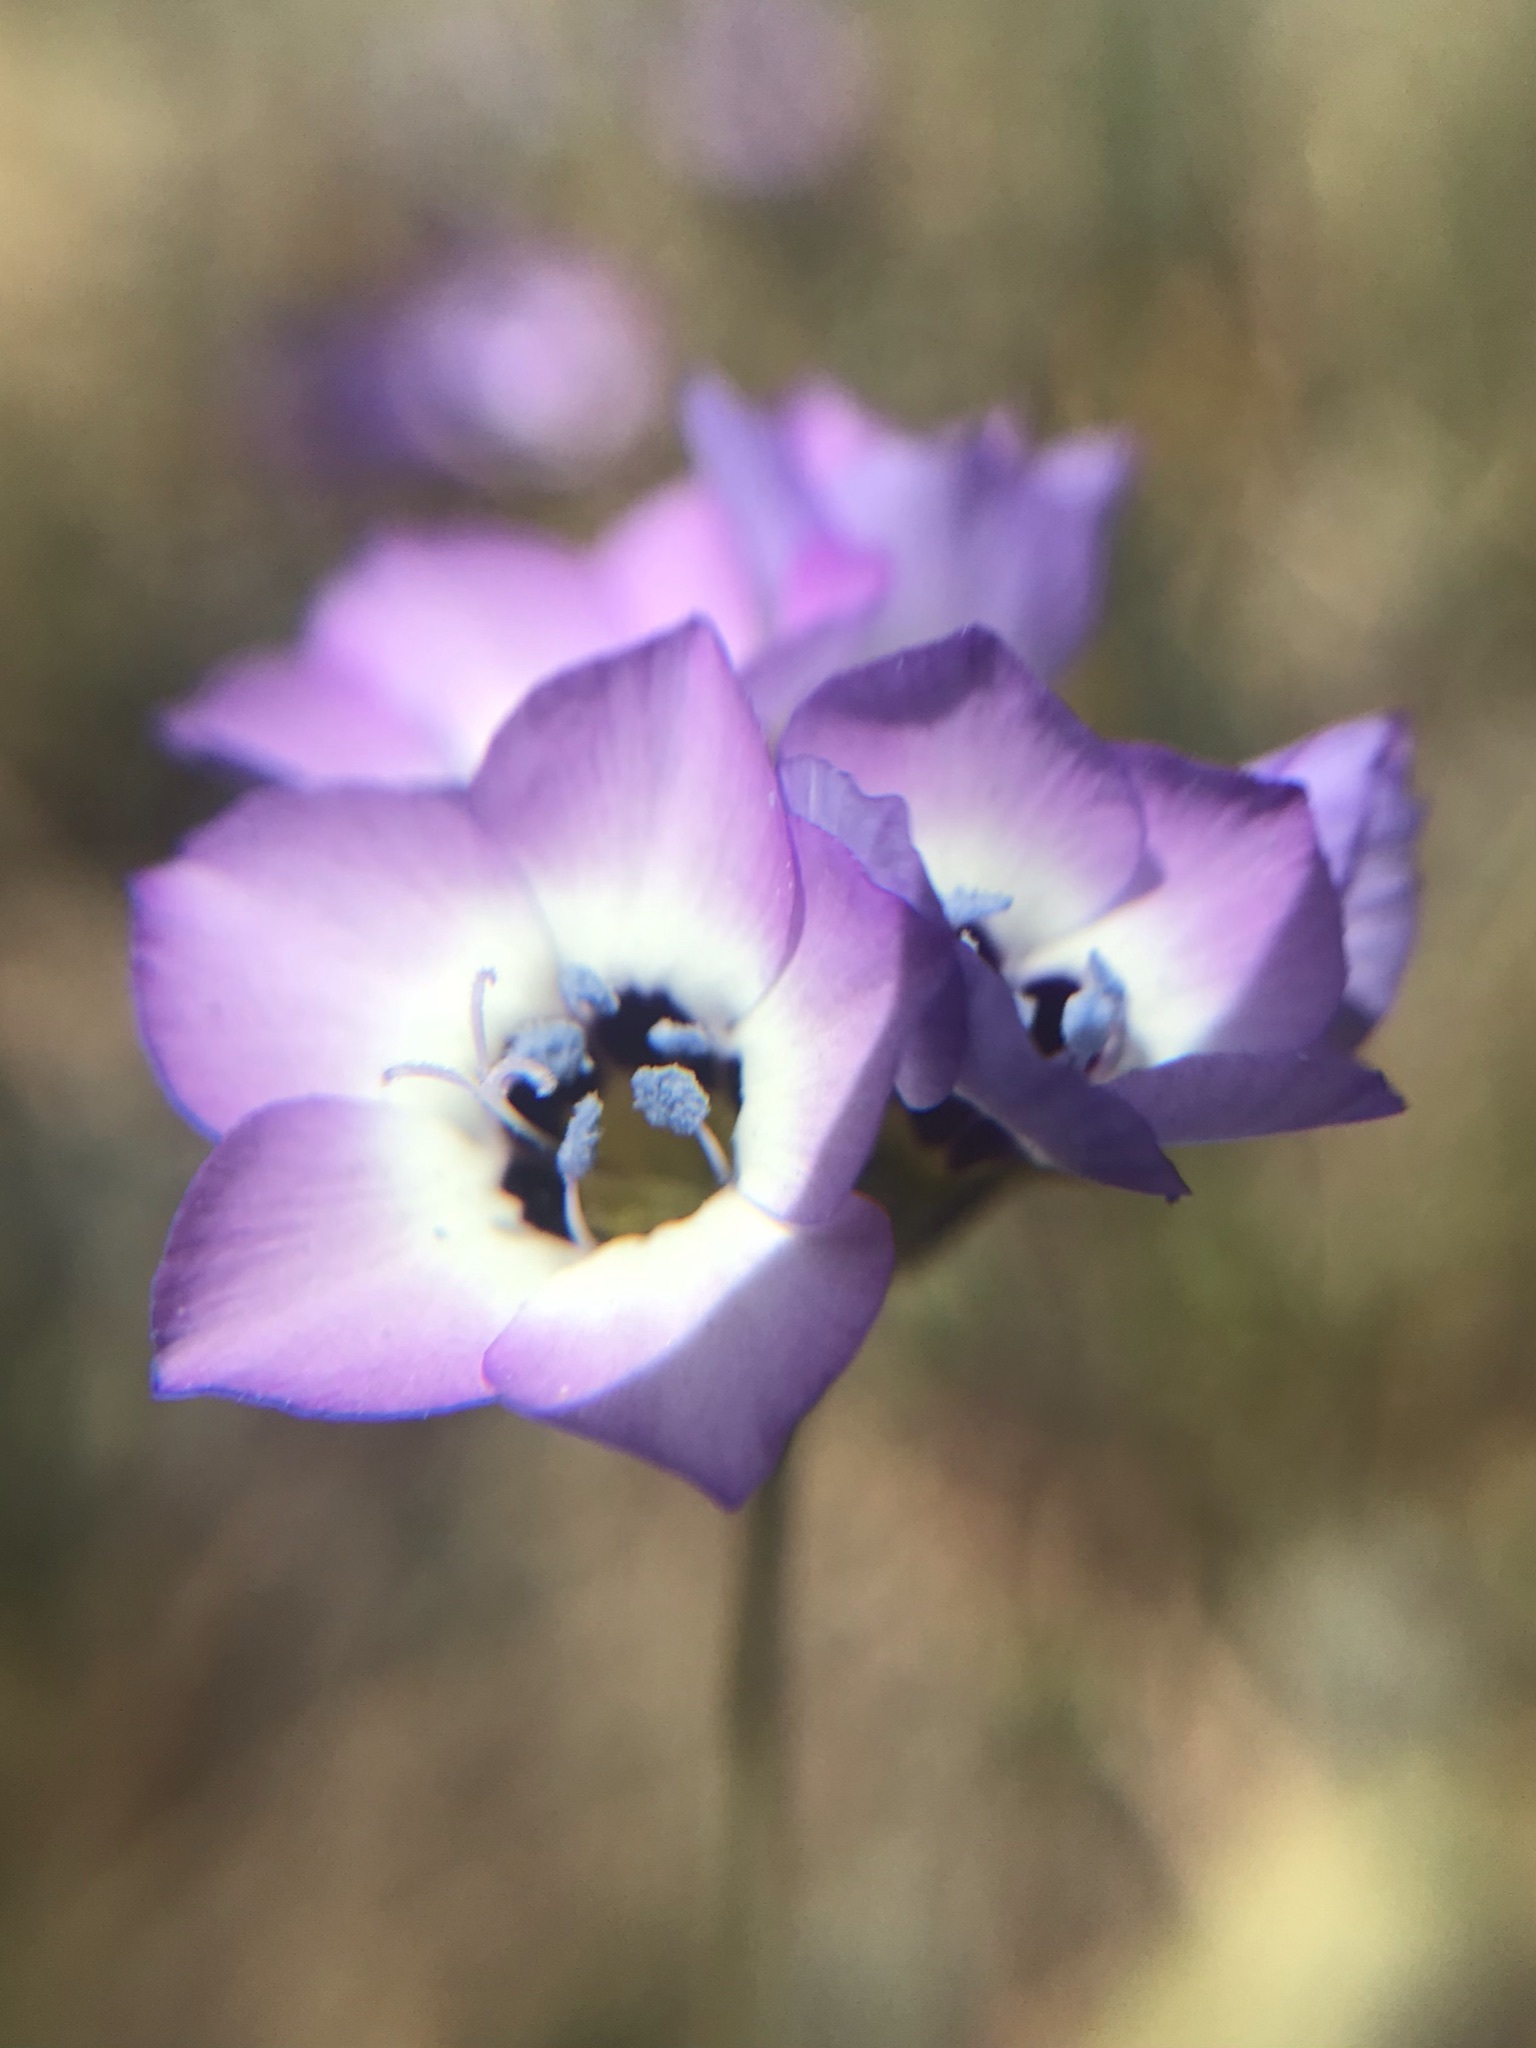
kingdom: Plantae
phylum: Tracheophyta
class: Magnoliopsida
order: Ericales
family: Polemoniaceae
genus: Gilia
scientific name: Gilia tricolor
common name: Bird's-eyes
